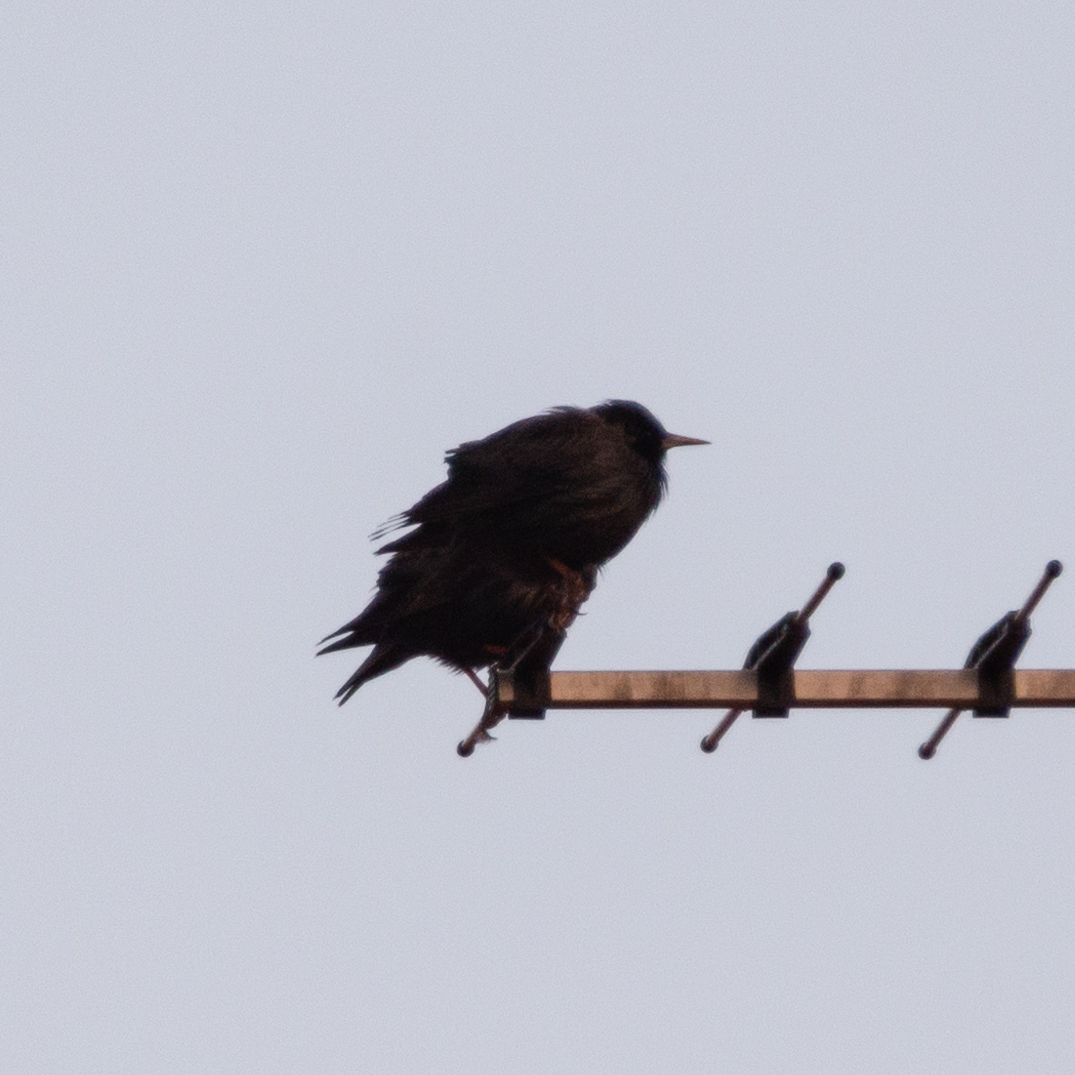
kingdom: Animalia
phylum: Chordata
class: Aves
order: Passeriformes
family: Sturnidae
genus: Sturnus
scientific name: Sturnus unicolor
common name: Spotless starling
